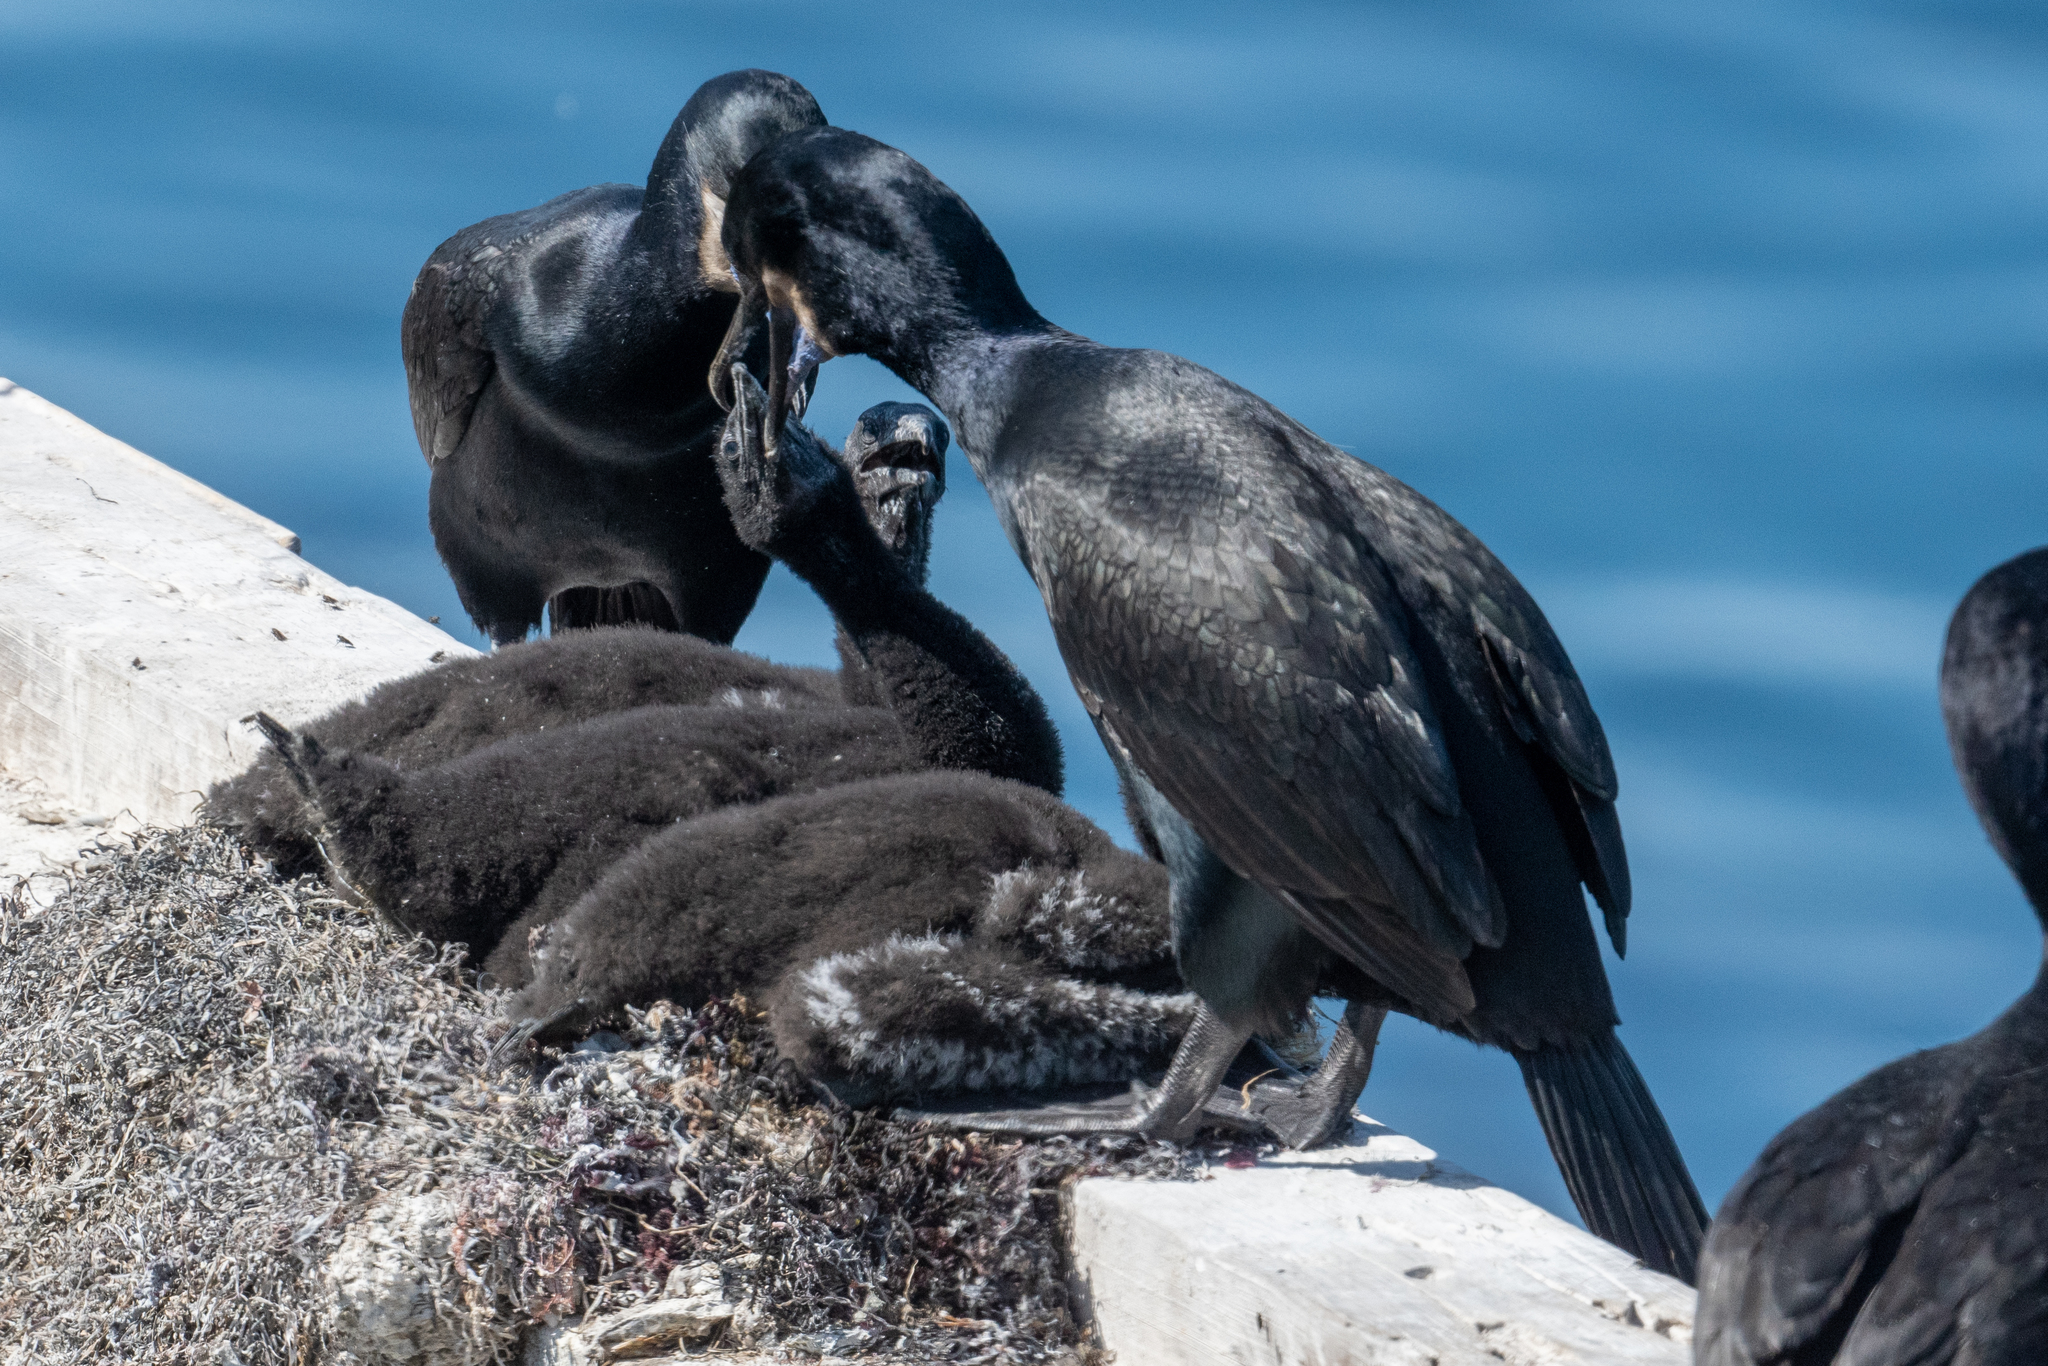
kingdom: Animalia
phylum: Chordata
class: Aves
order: Suliformes
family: Phalacrocoracidae
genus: Urile
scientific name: Urile penicillatus
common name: Brandt's cormorant
